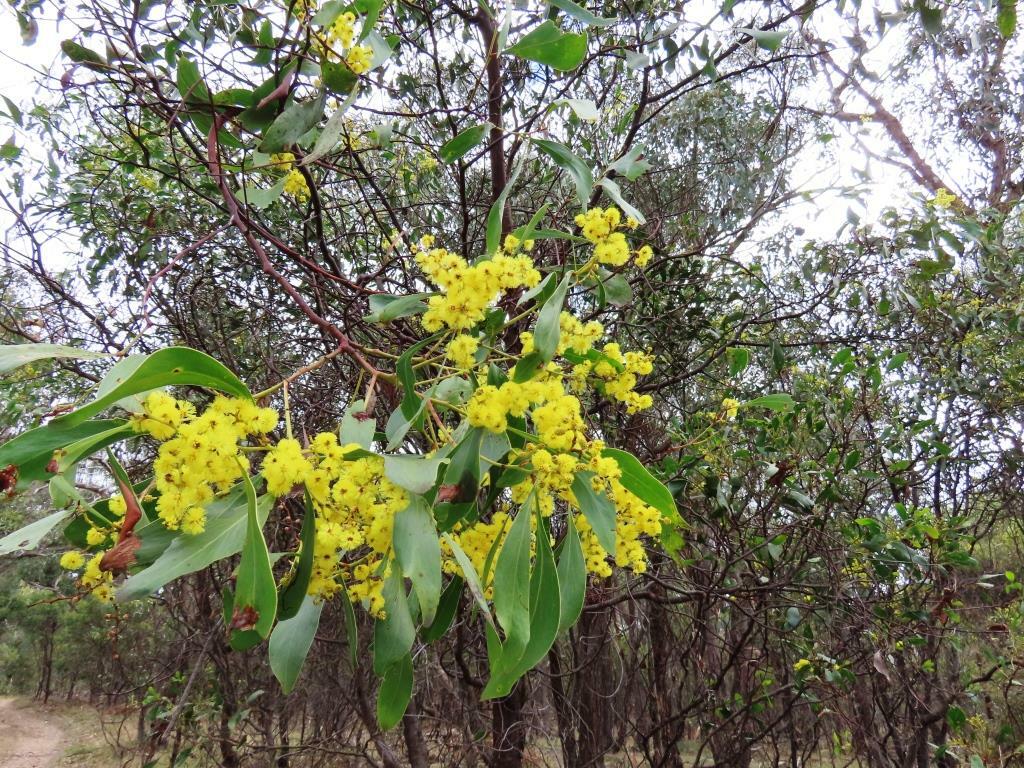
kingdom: Plantae
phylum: Tracheophyta
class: Magnoliopsida
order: Fabales
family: Fabaceae
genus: Acacia
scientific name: Acacia pycnantha
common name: Golden wattle
